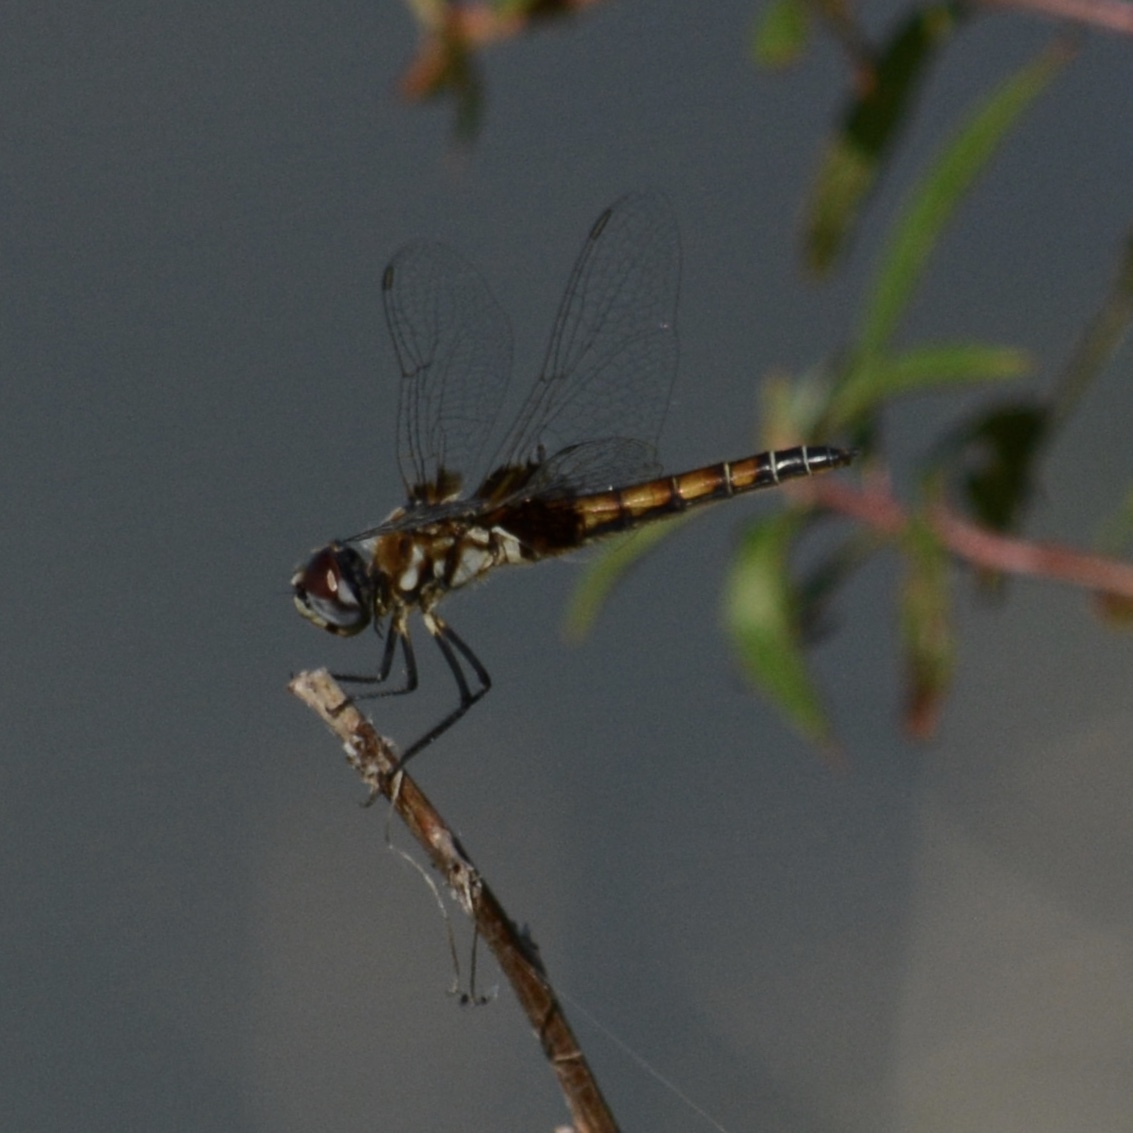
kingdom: Animalia
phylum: Arthropoda
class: Insecta
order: Odonata
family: Libellulidae
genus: Macrodiplax
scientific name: Macrodiplax balteata
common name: Marl pennant
